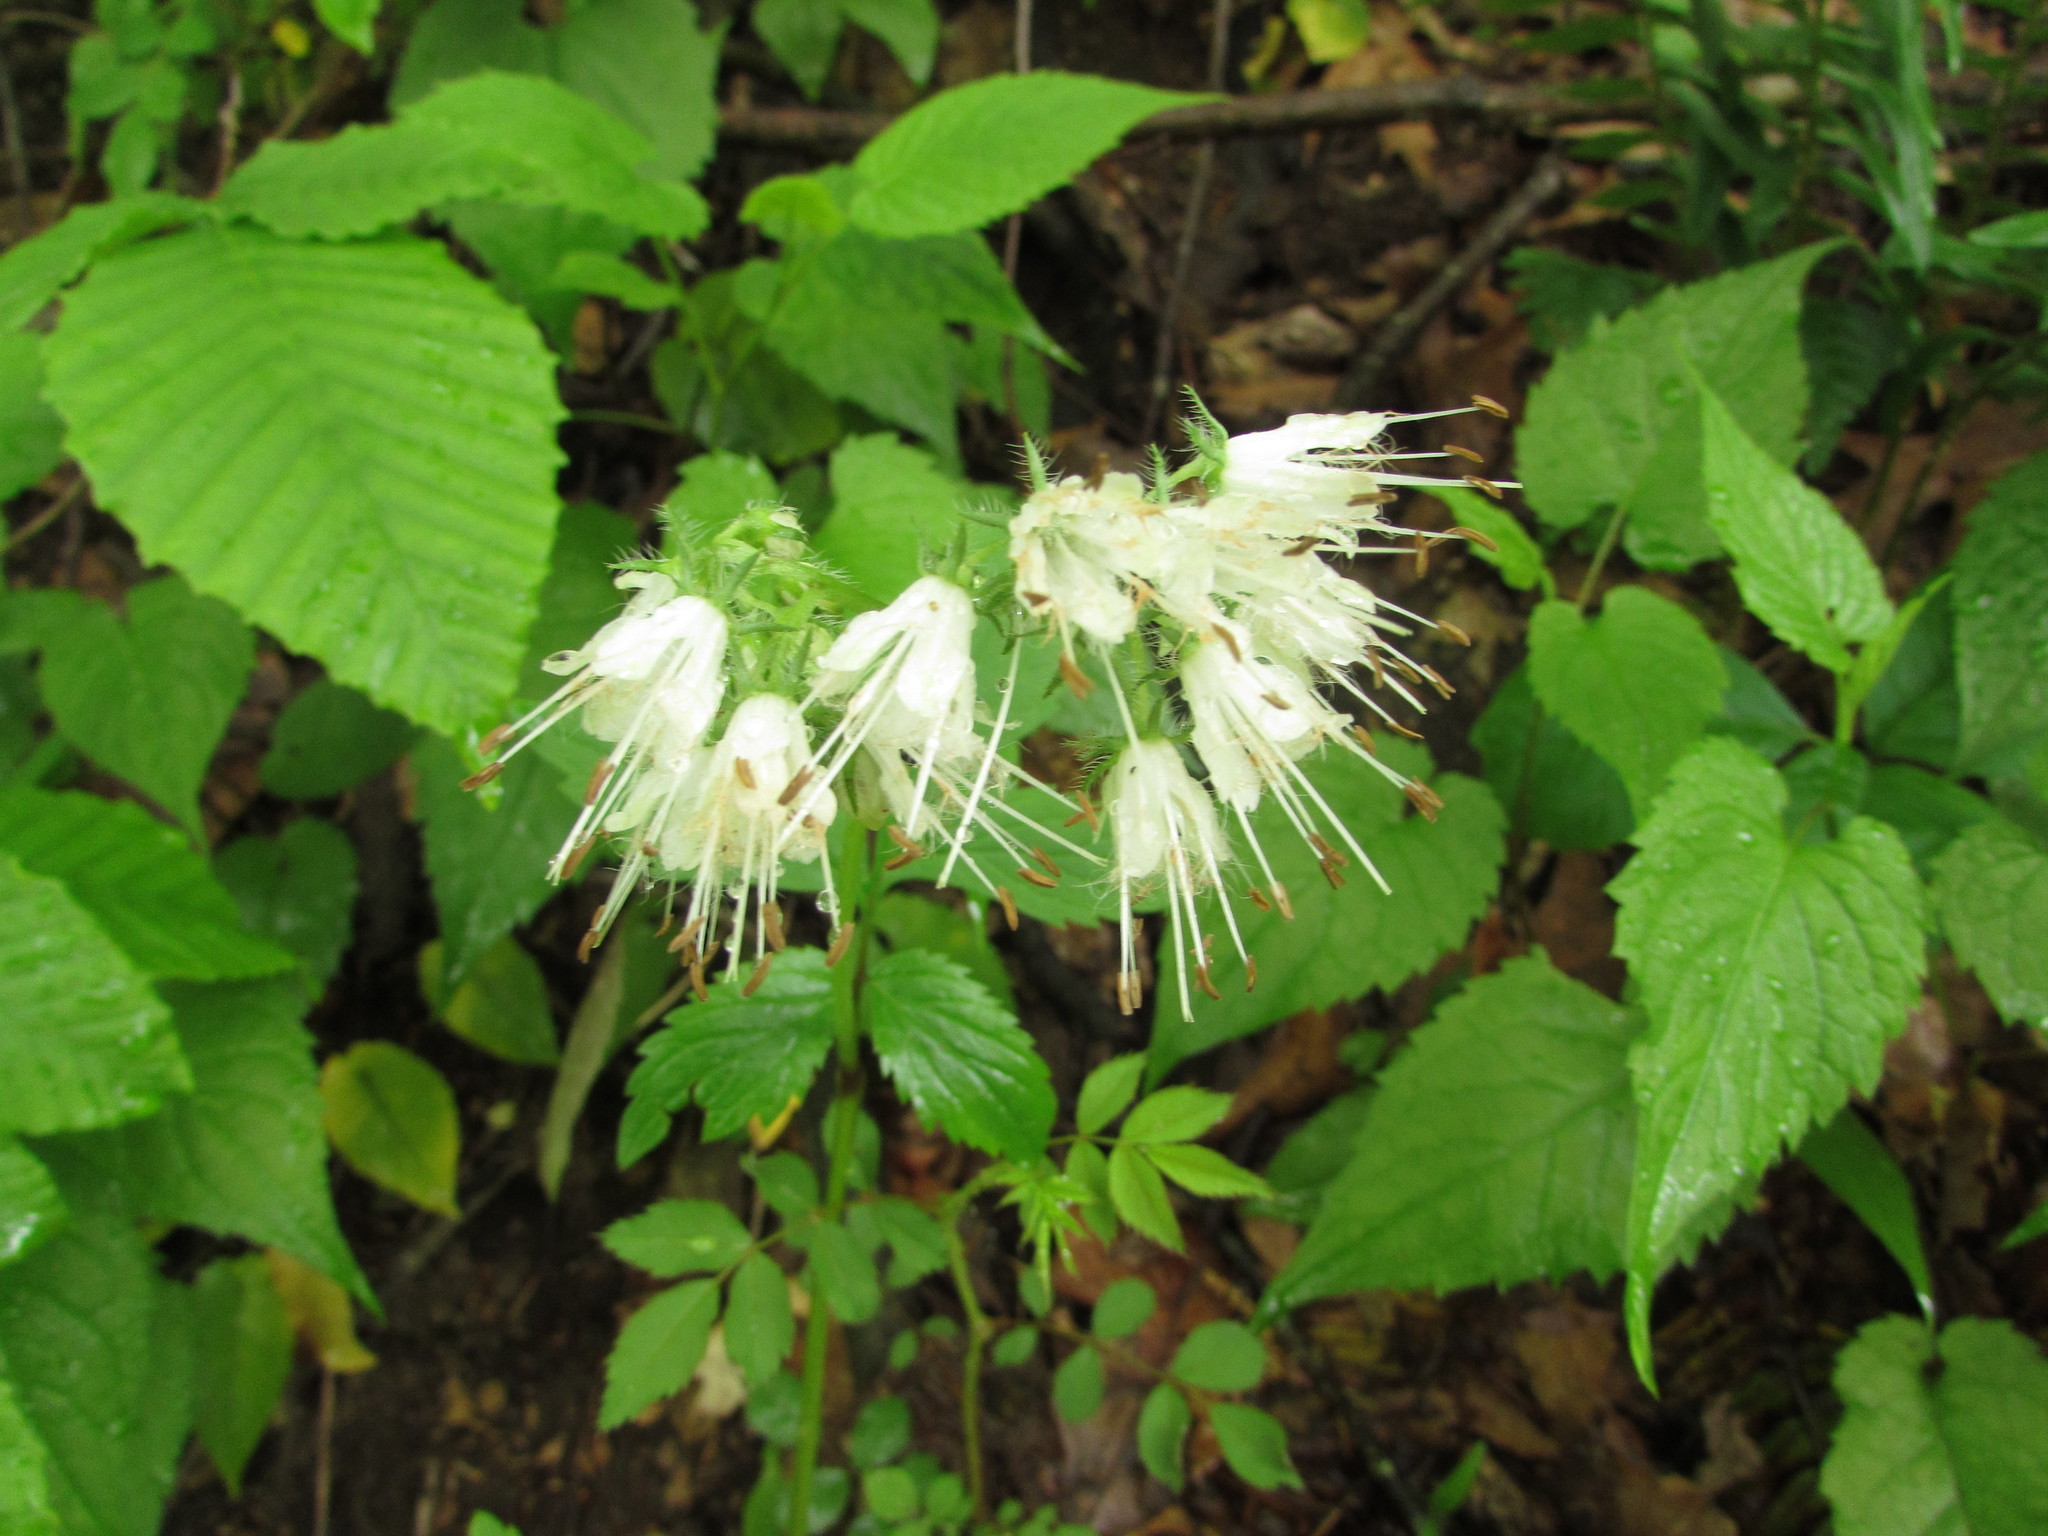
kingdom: Plantae
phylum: Tracheophyta
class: Magnoliopsida
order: Boraginales
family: Hydrophyllaceae
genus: Hydrophyllum
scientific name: Hydrophyllum virginianum
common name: Virginia waterleaf
